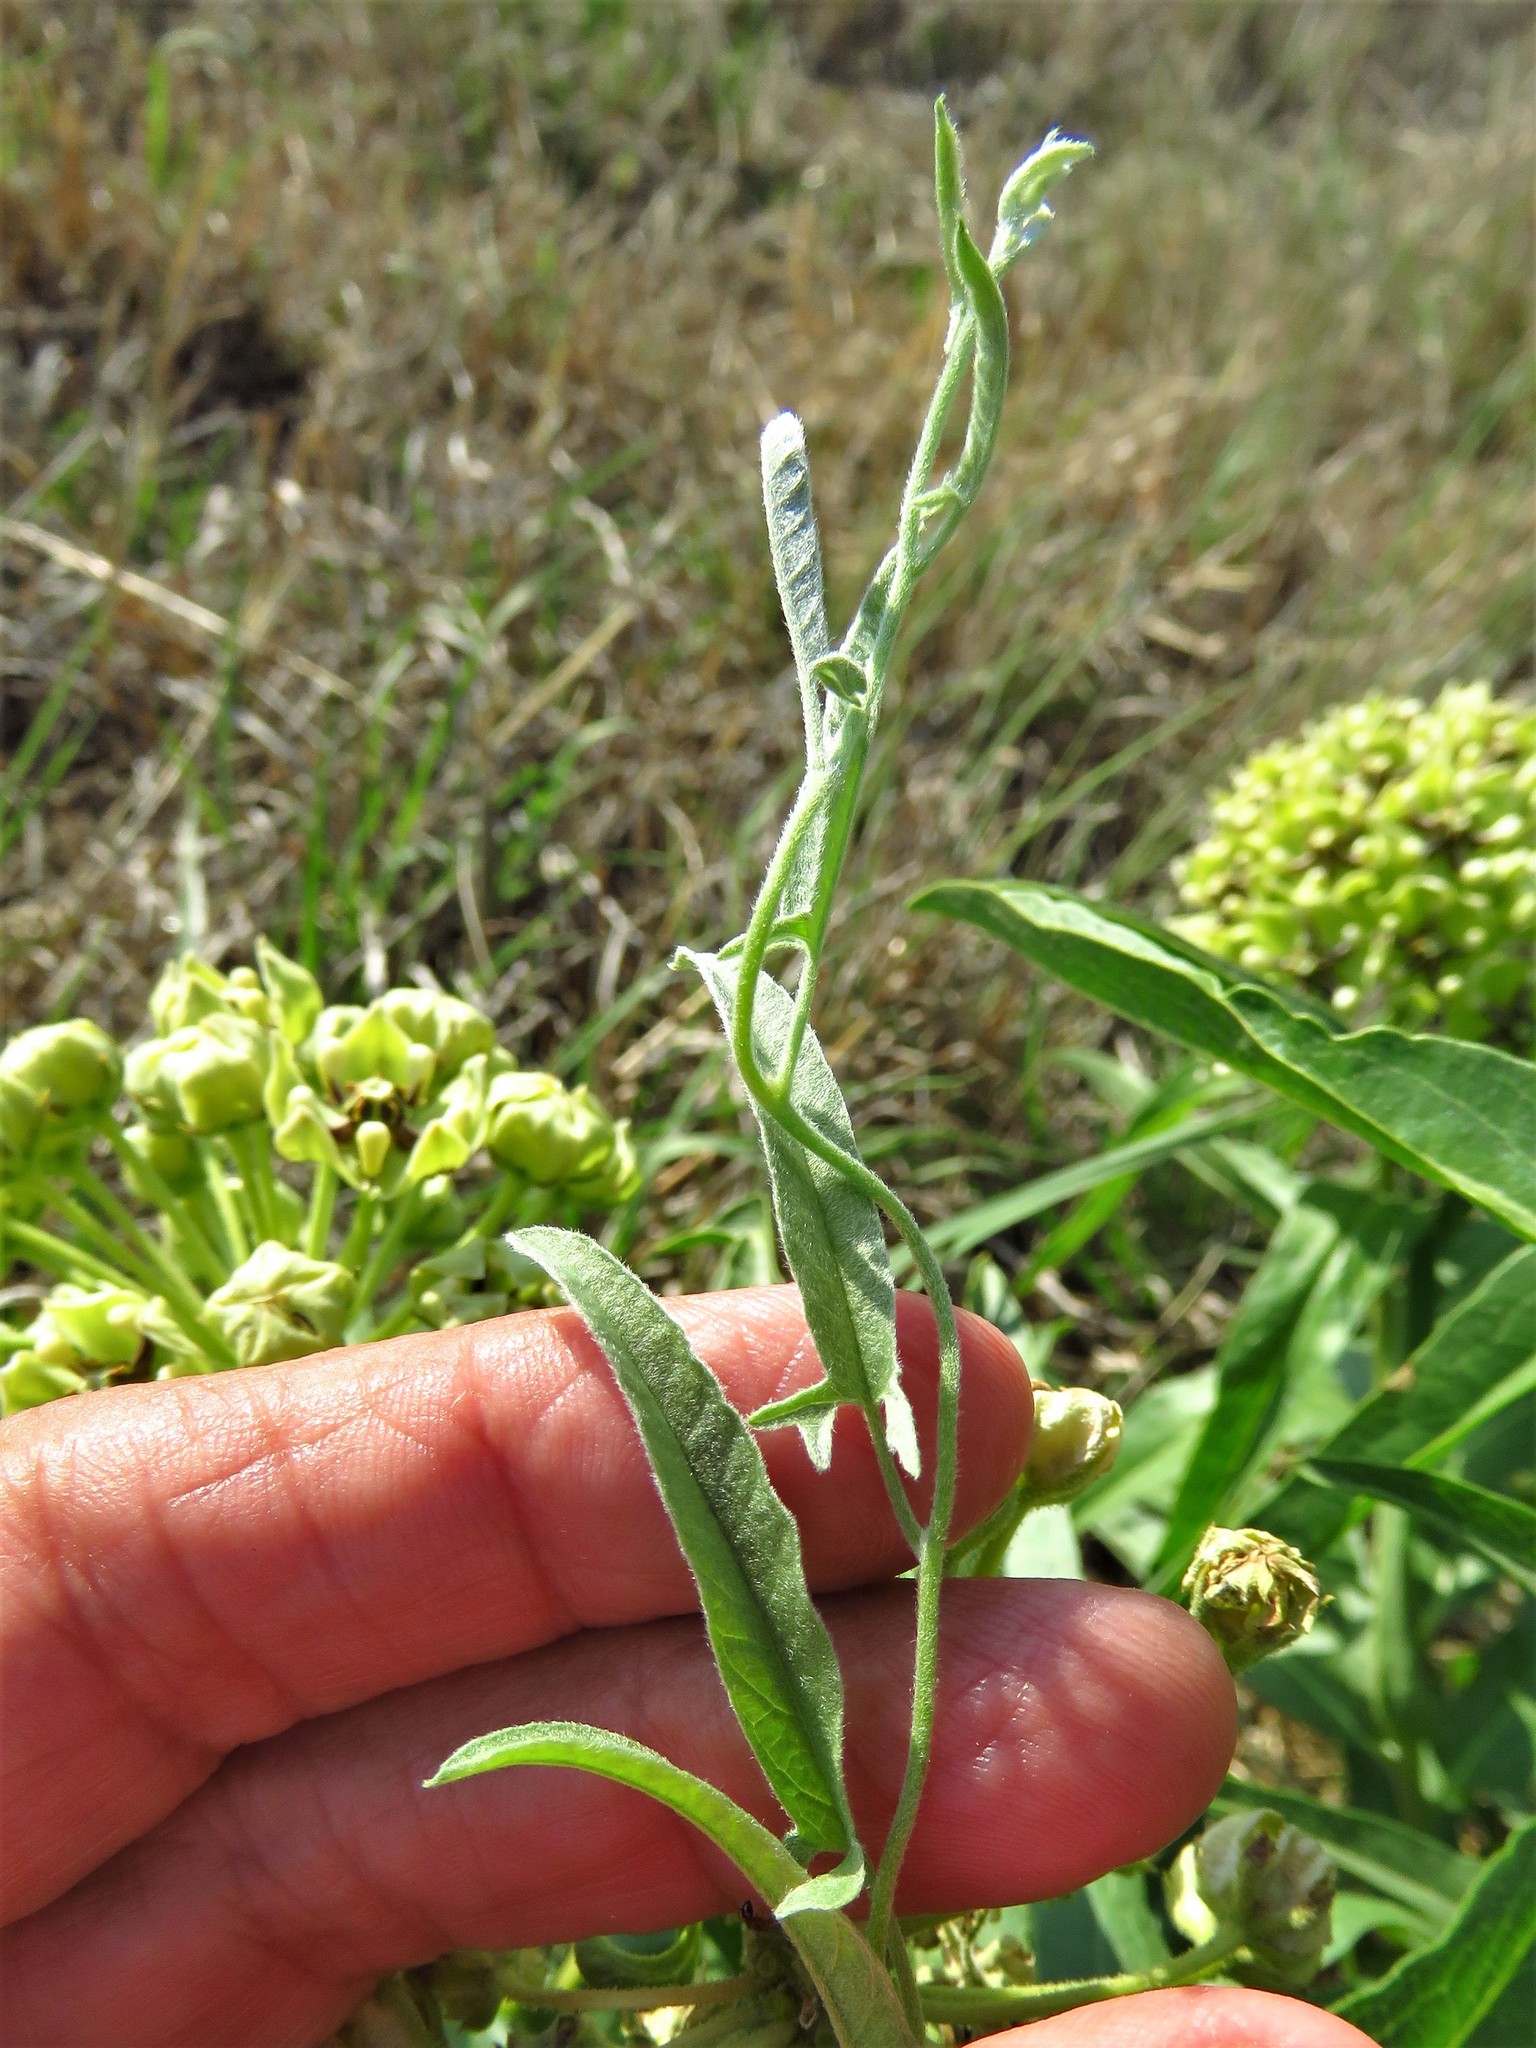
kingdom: Plantae
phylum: Tracheophyta
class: Magnoliopsida
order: Solanales
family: Convolvulaceae
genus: Convolvulus
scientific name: Convolvulus equitans
